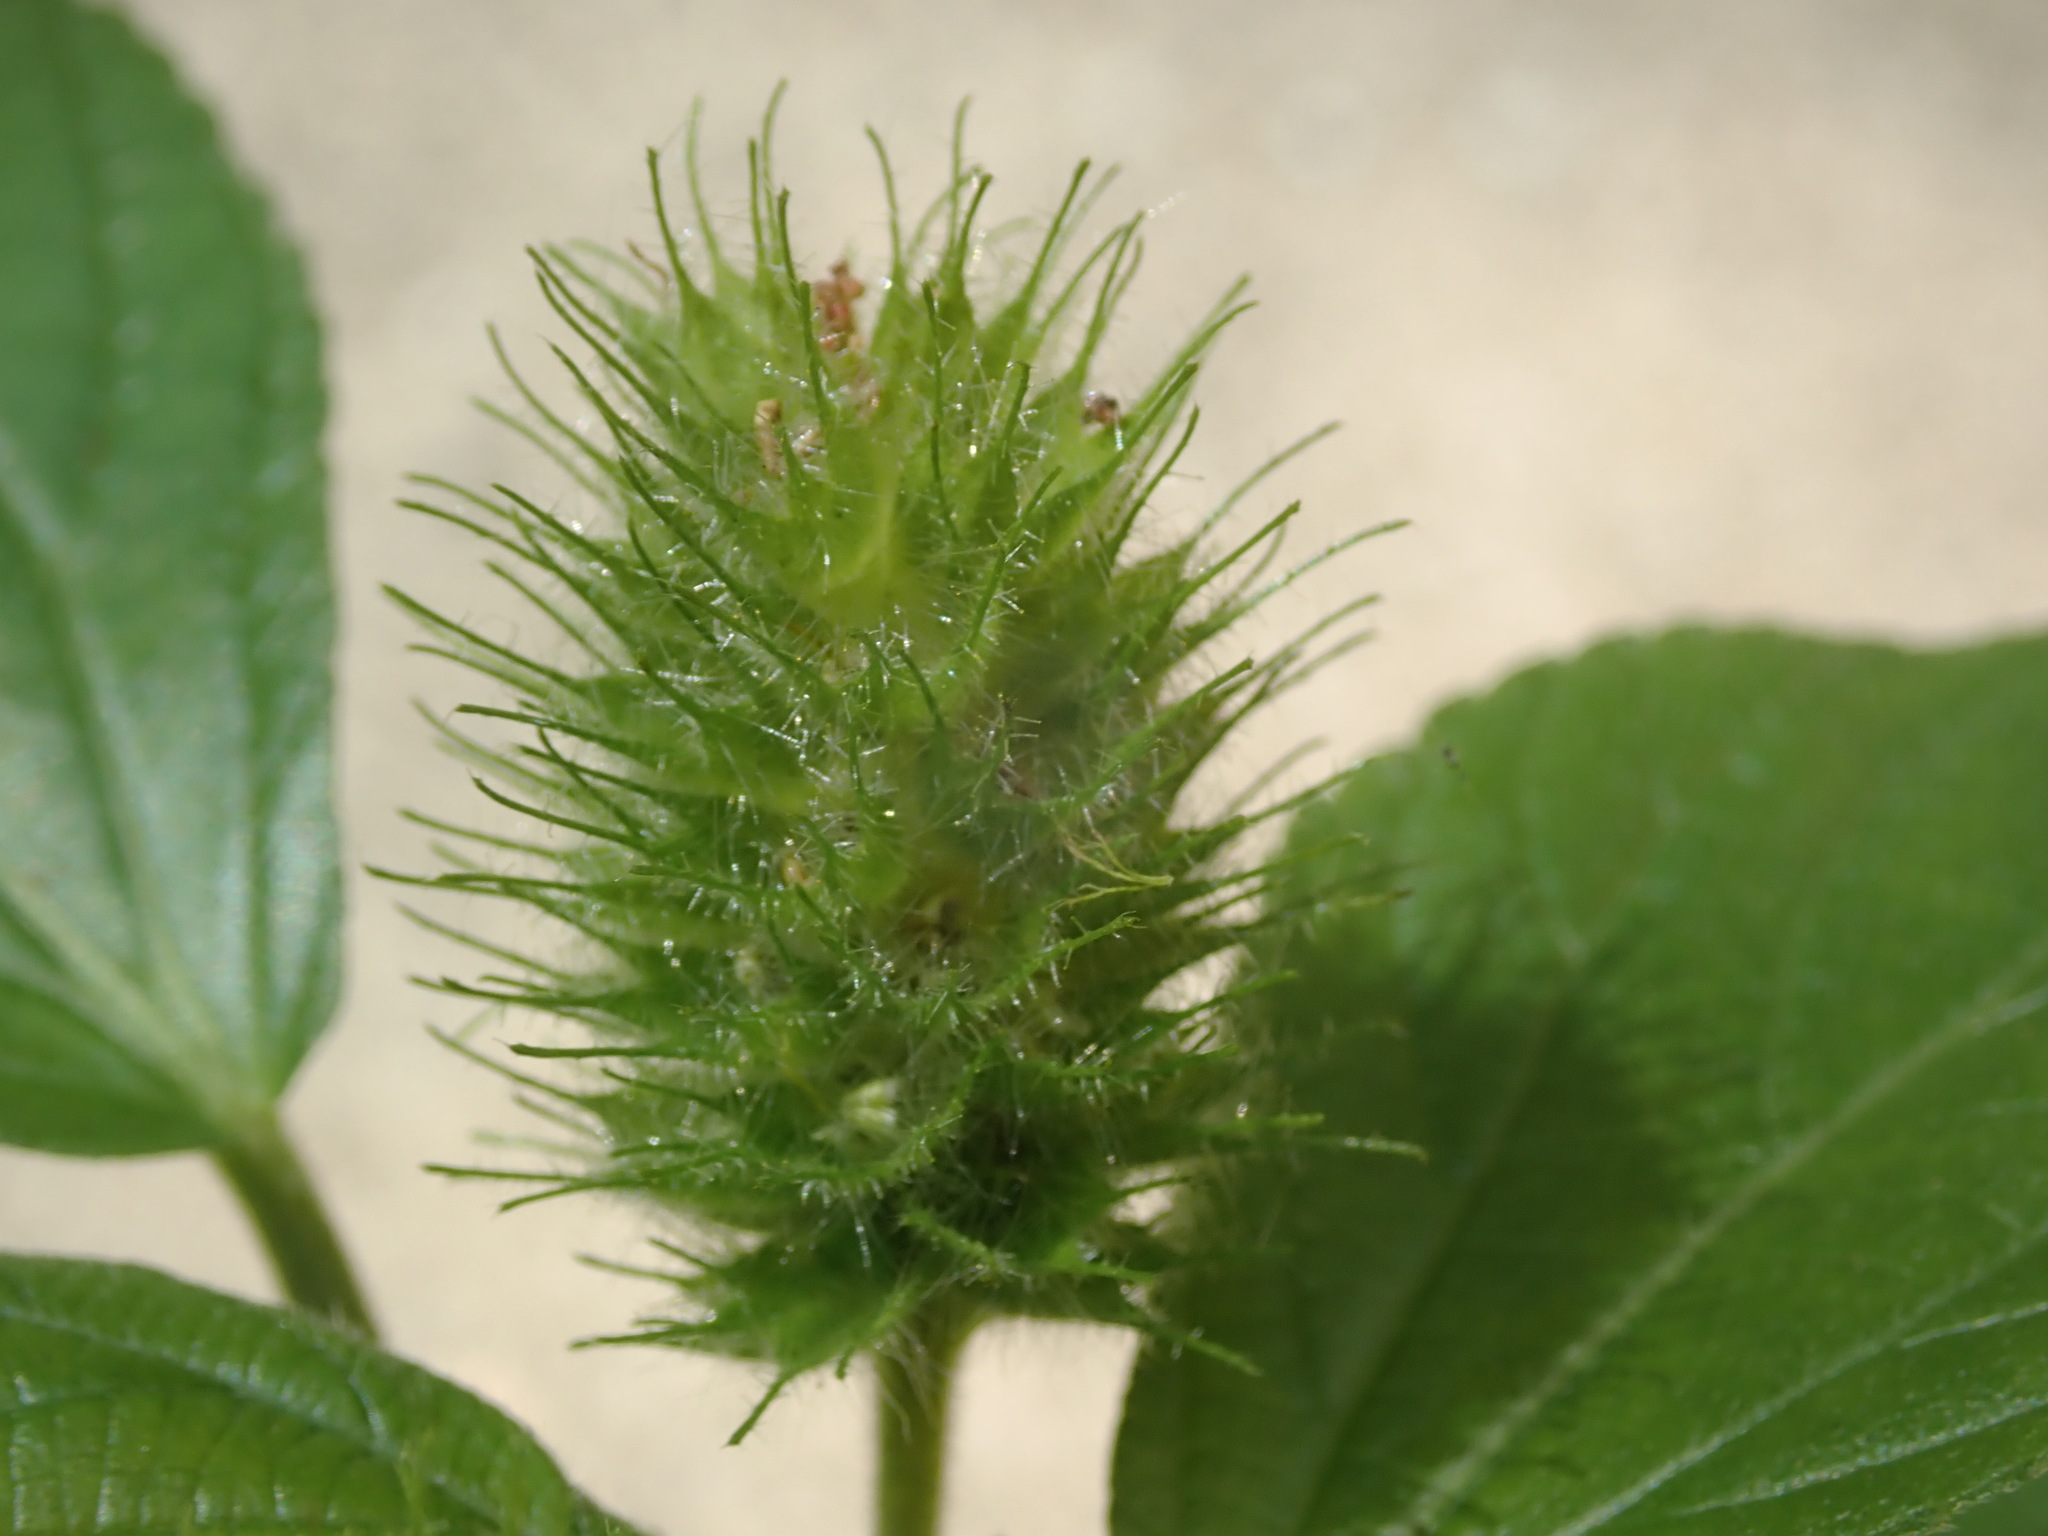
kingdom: Plantae
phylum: Tracheophyta
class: Magnoliopsida
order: Malpighiales
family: Euphorbiaceae
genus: Acalypha
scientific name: Acalypha alopecuroidea
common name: Foxtail copperleaf
